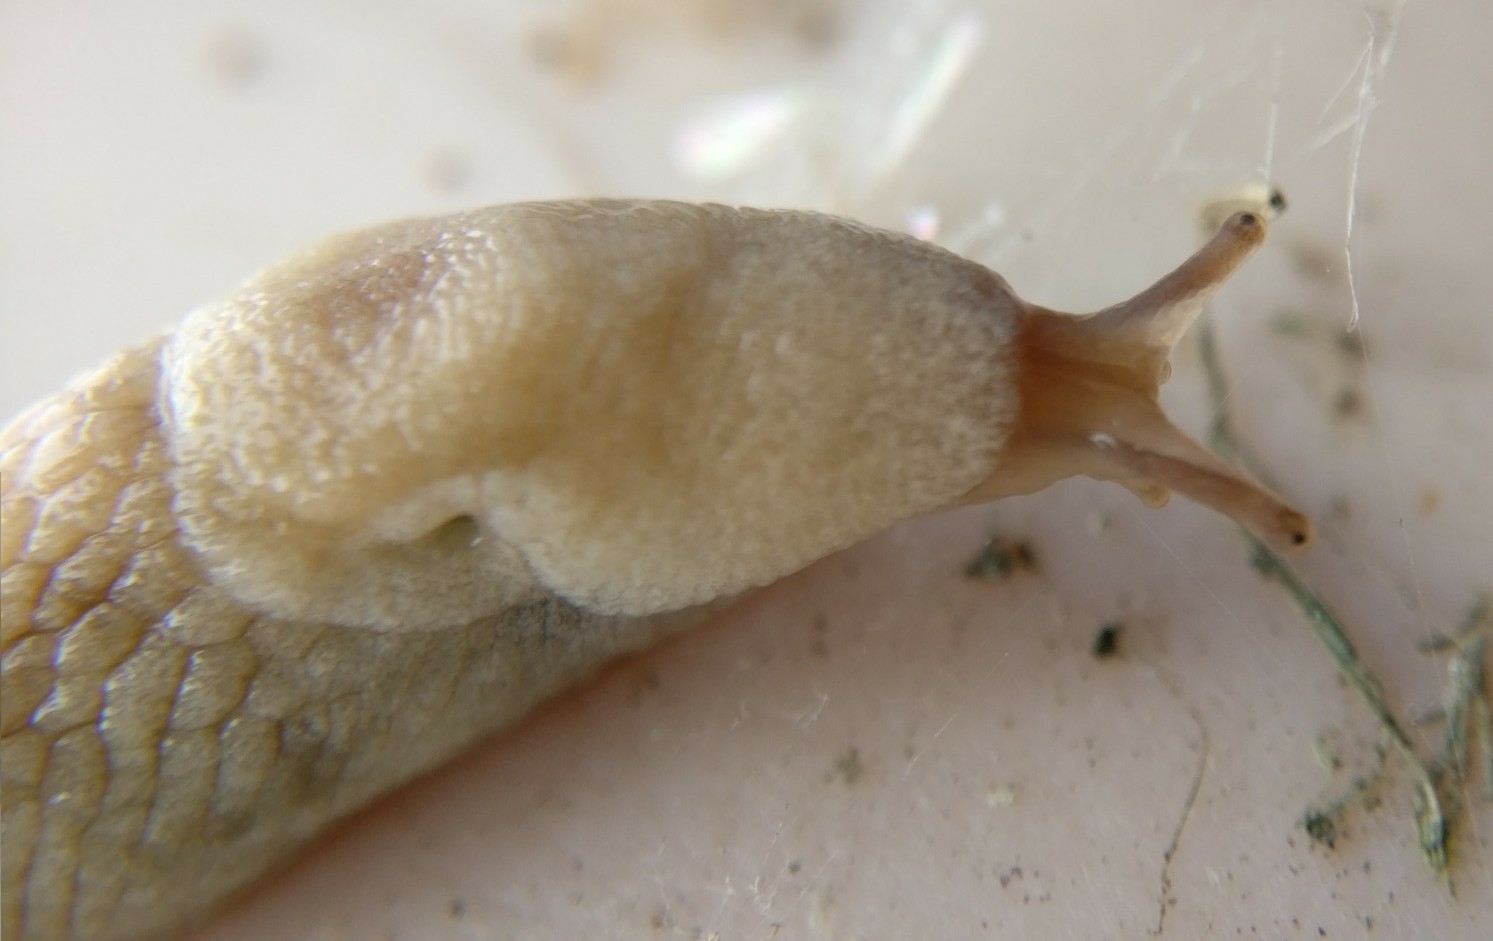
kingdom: Animalia
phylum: Mollusca
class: Gastropoda
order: Stylommatophora
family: Agriolimacidae
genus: Deroceras
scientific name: Deroceras reticulatum
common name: Gray field slug
